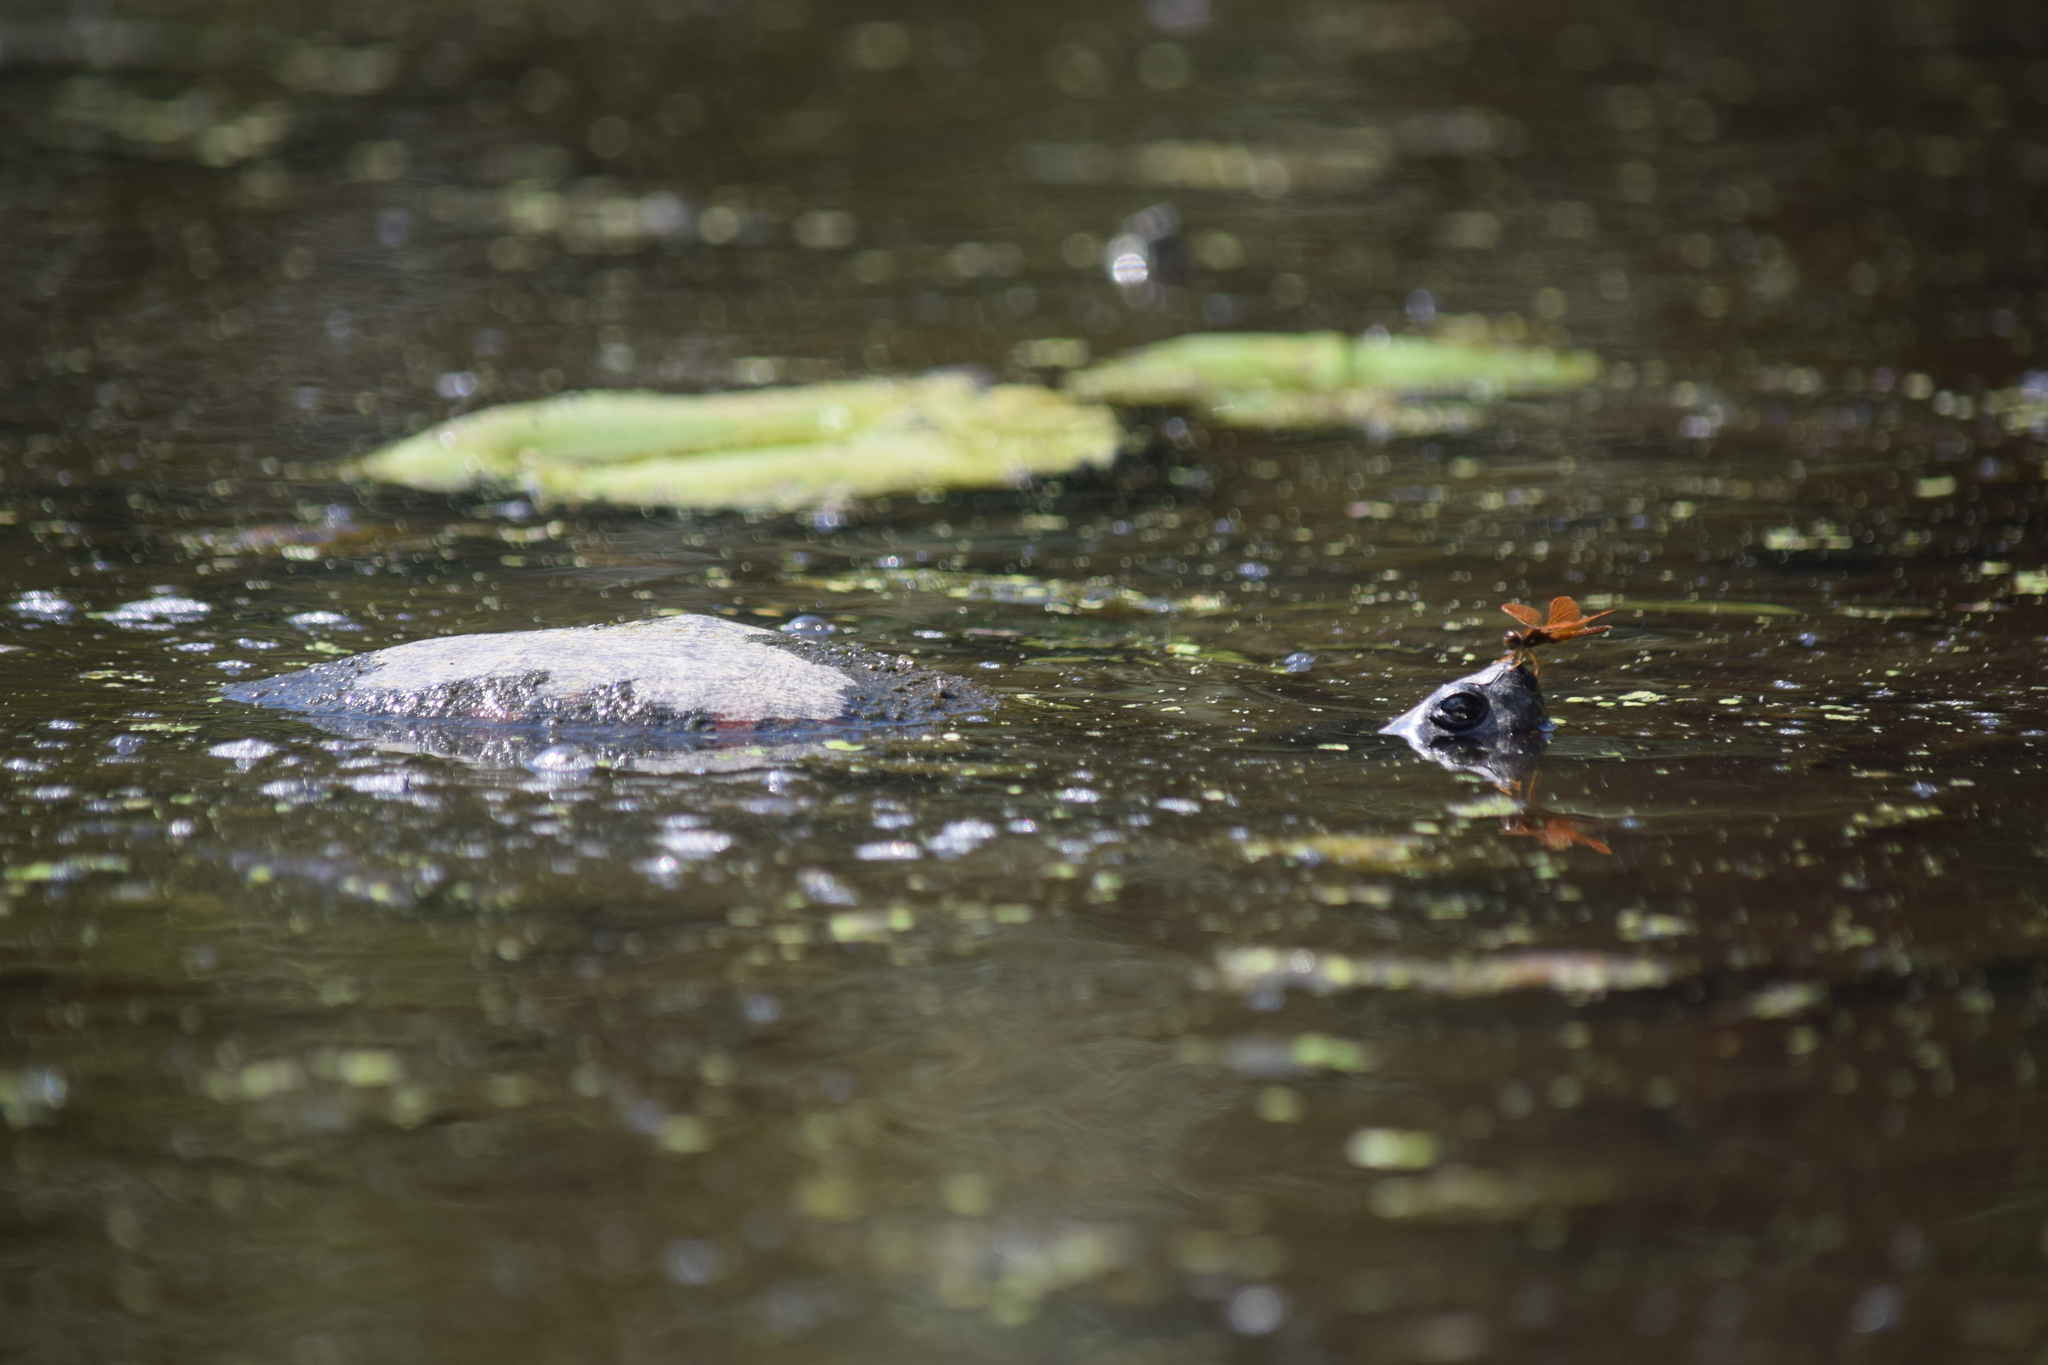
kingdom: Animalia
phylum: Chordata
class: Testudines
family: Emydidae
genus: Pseudemys
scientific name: Pseudemys rubriventris
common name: American red-bellied turtle
